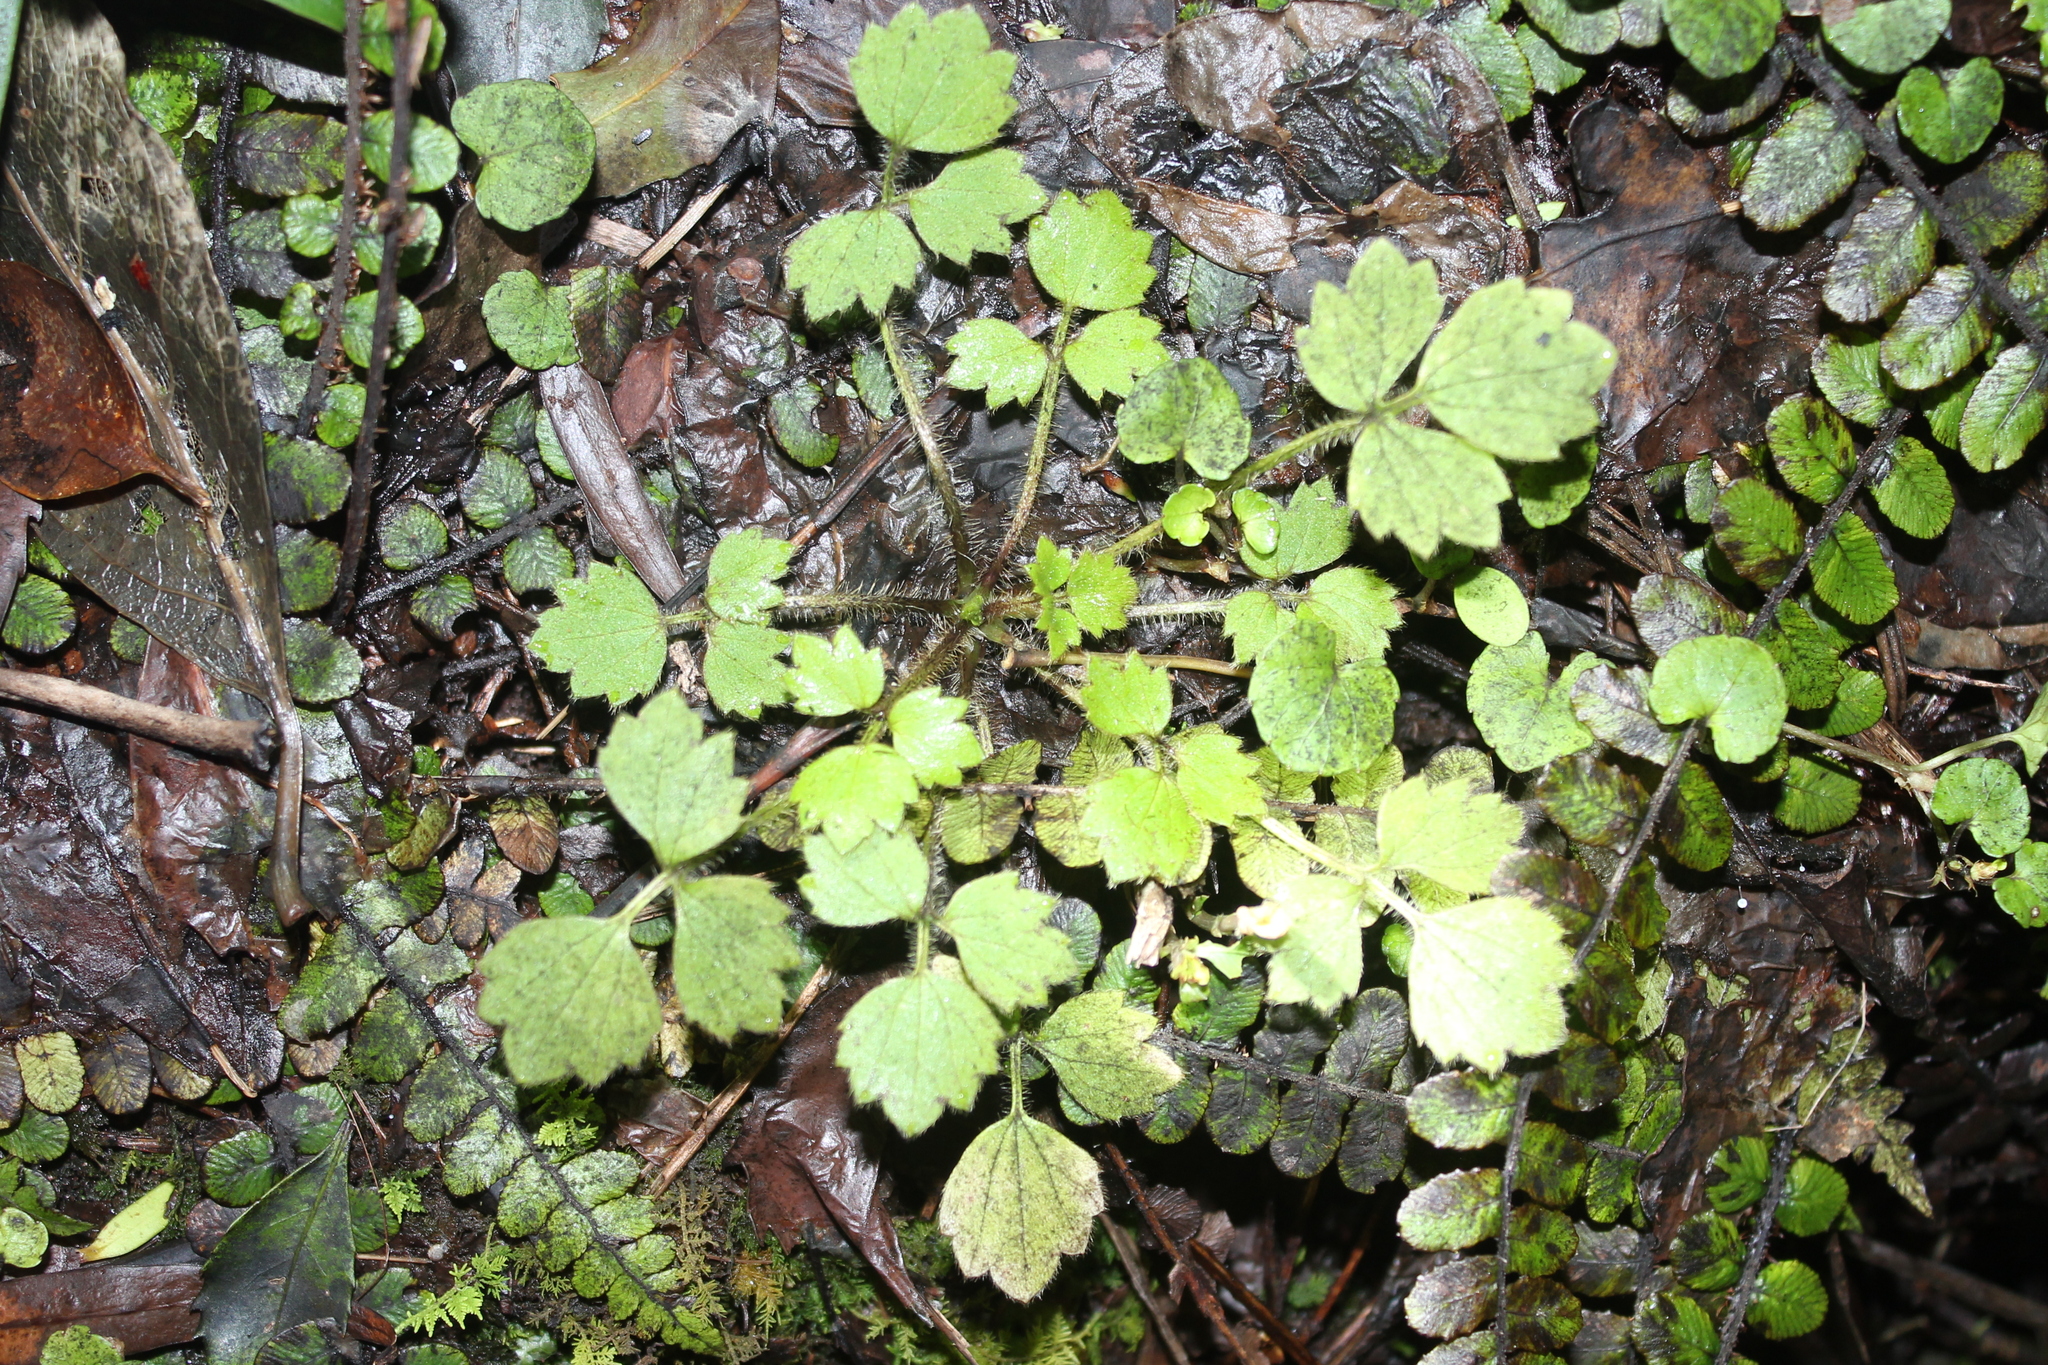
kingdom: Plantae
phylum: Tracheophyta
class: Magnoliopsida
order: Ranunculales
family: Ranunculaceae
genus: Ranunculus
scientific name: Ranunculus reflexus
